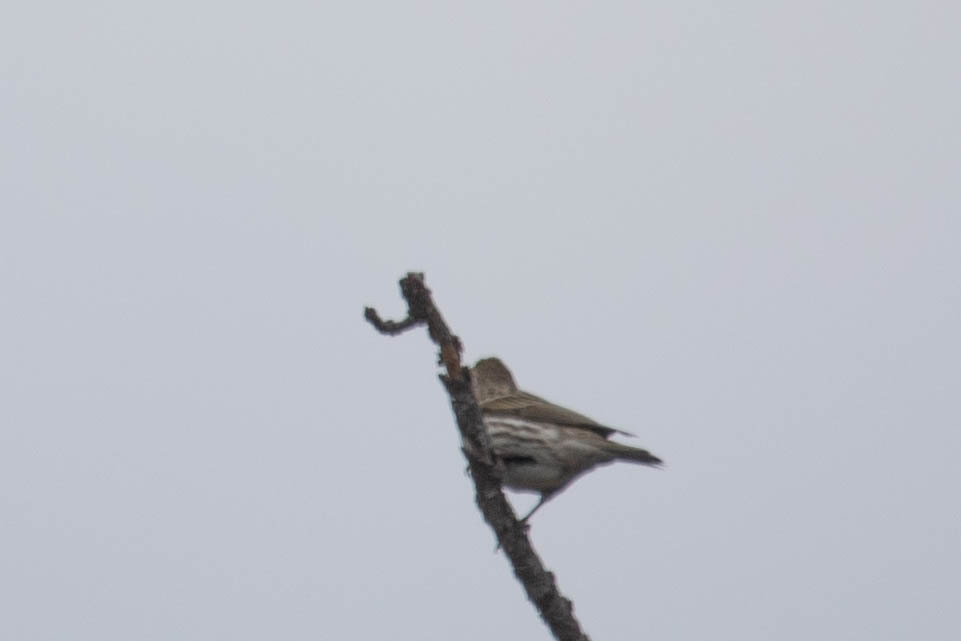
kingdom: Animalia
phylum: Chordata
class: Aves
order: Passeriformes
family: Fringillidae
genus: Haemorhous
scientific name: Haemorhous cassinii
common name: Cassin's finch
